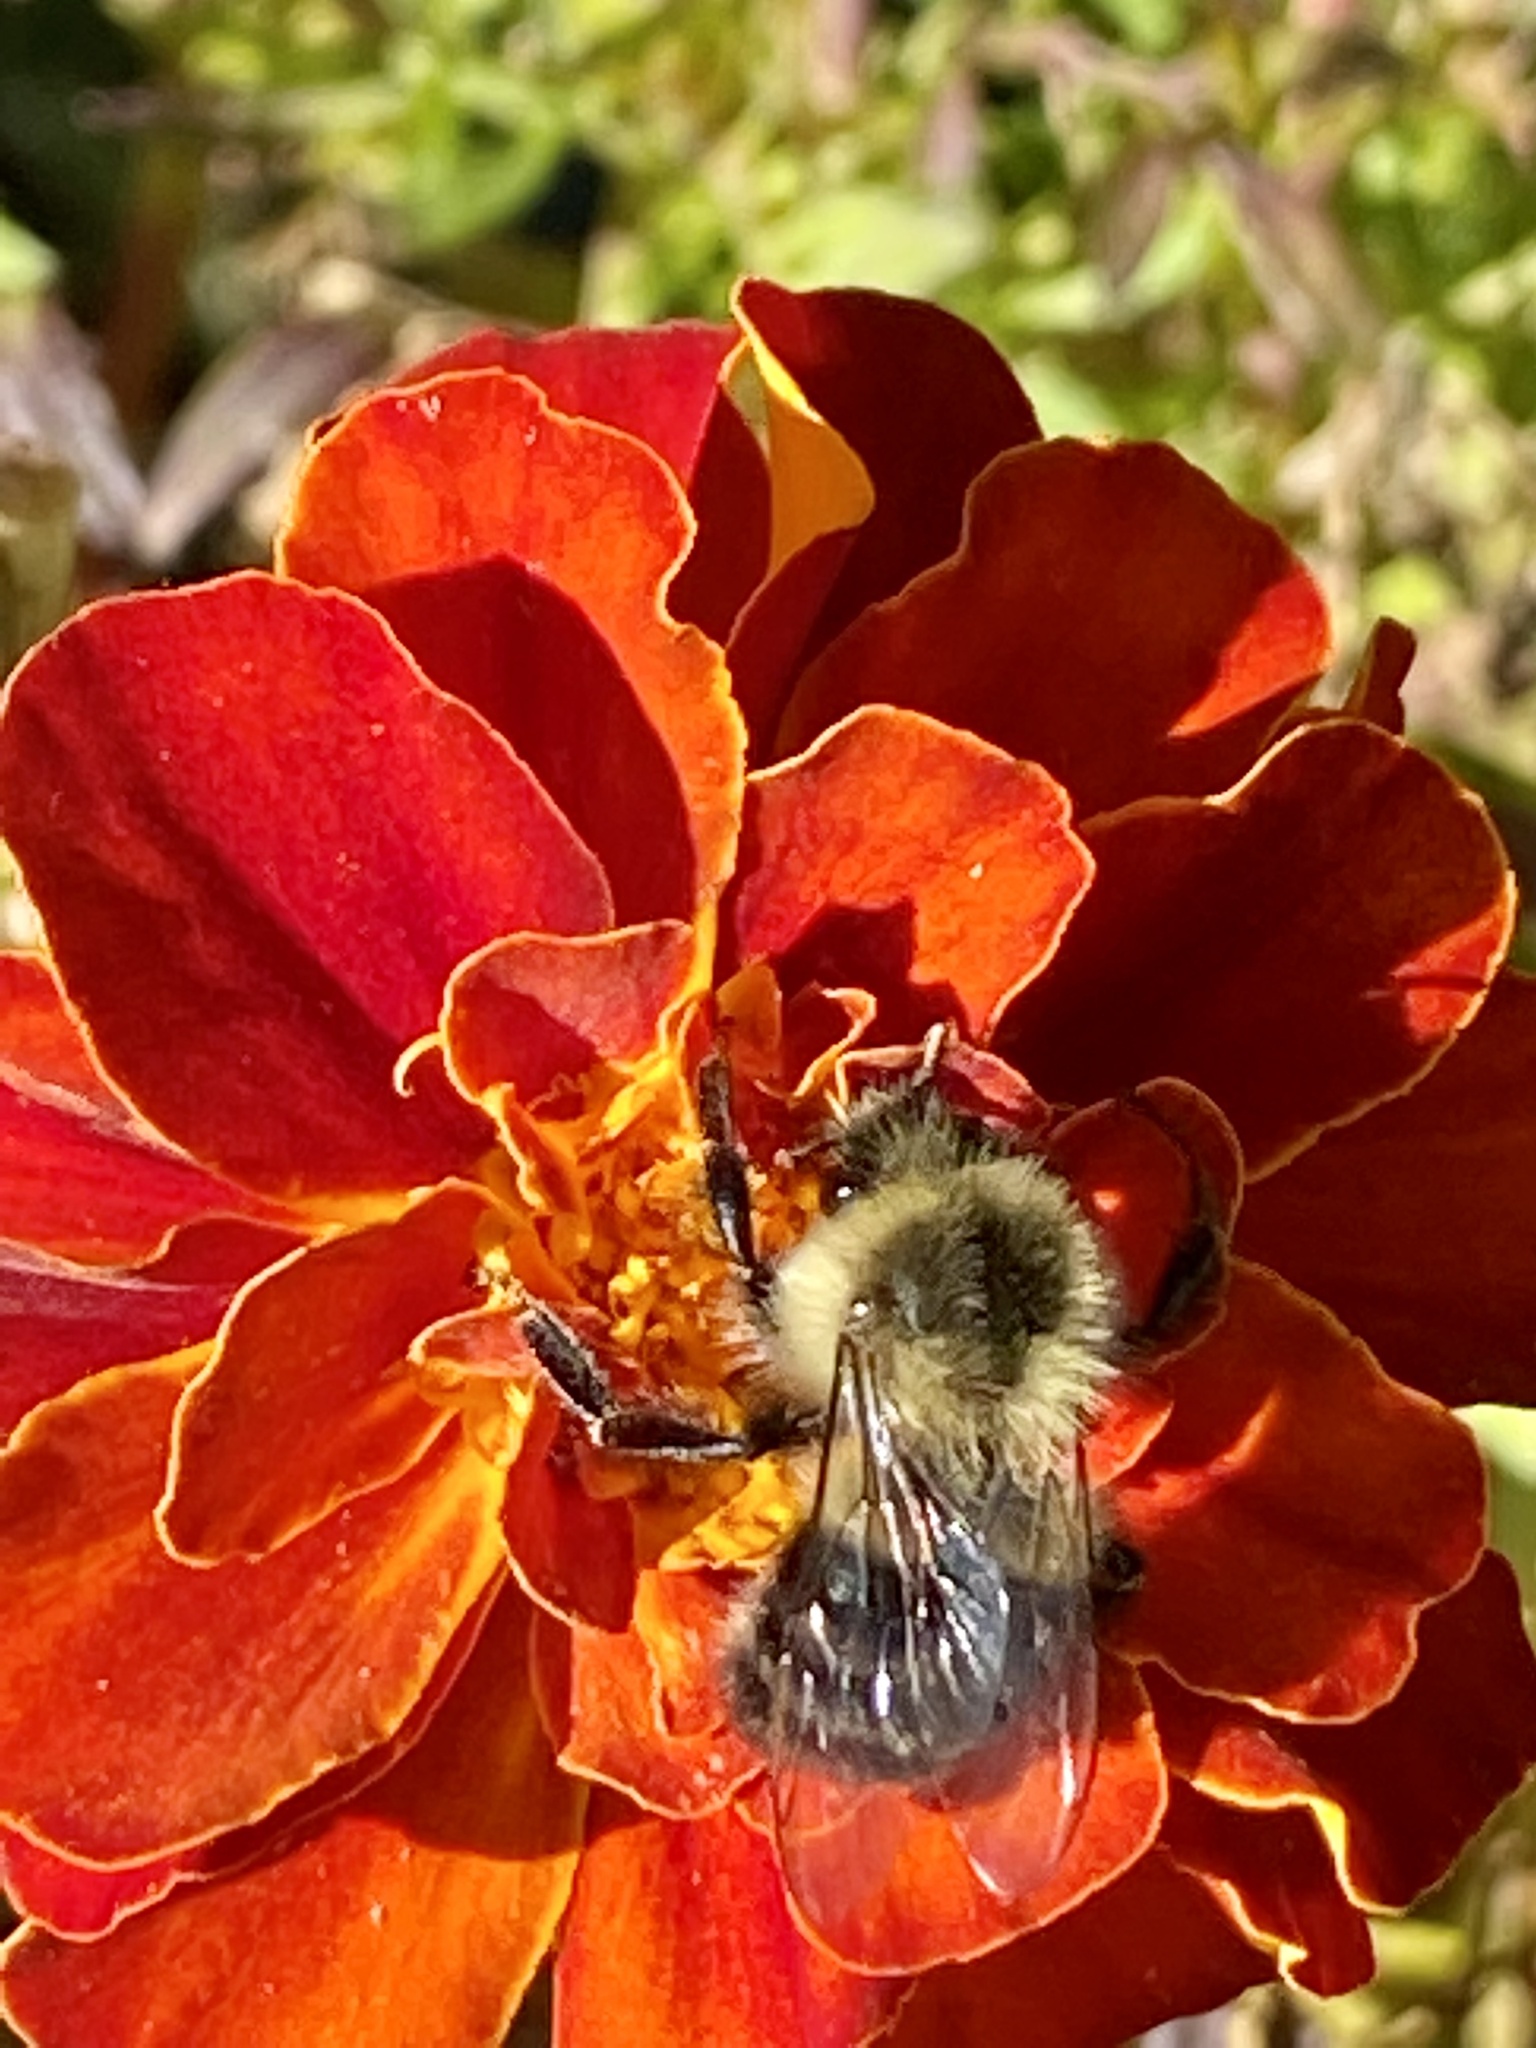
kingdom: Animalia
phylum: Arthropoda
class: Insecta
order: Hymenoptera
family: Apidae
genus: Bombus
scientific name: Bombus impatiens
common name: Common eastern bumble bee
